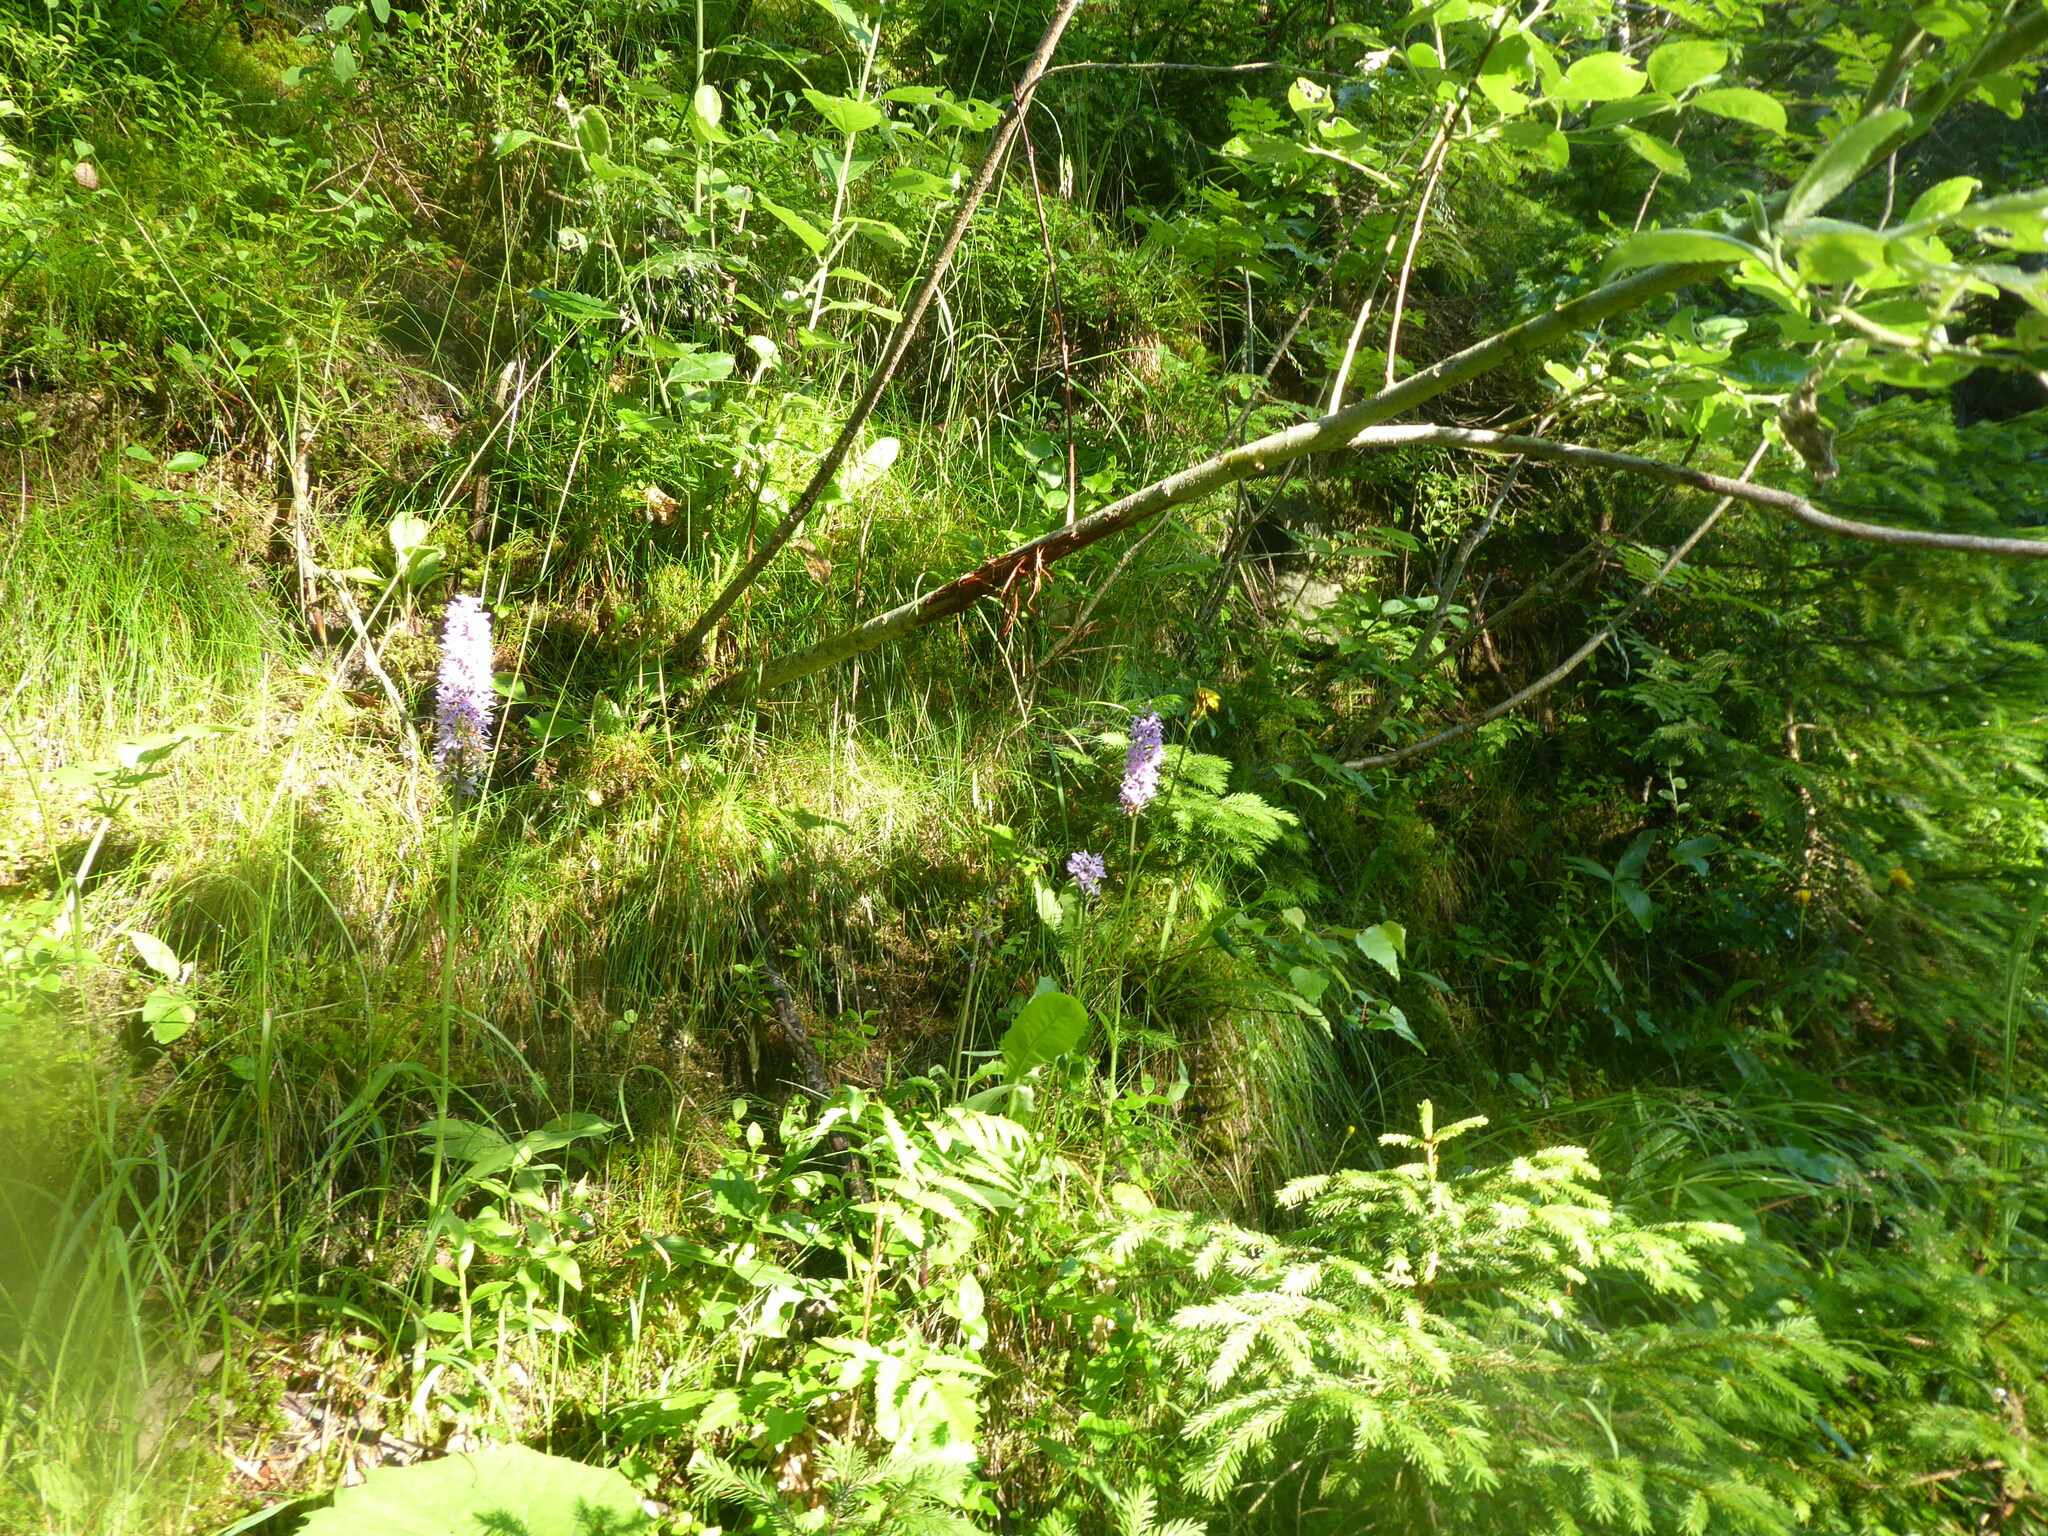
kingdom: Plantae
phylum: Tracheophyta
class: Liliopsida
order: Asparagales
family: Orchidaceae
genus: Dactylorhiza
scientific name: Dactylorhiza maculata
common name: Heath spotted-orchid
